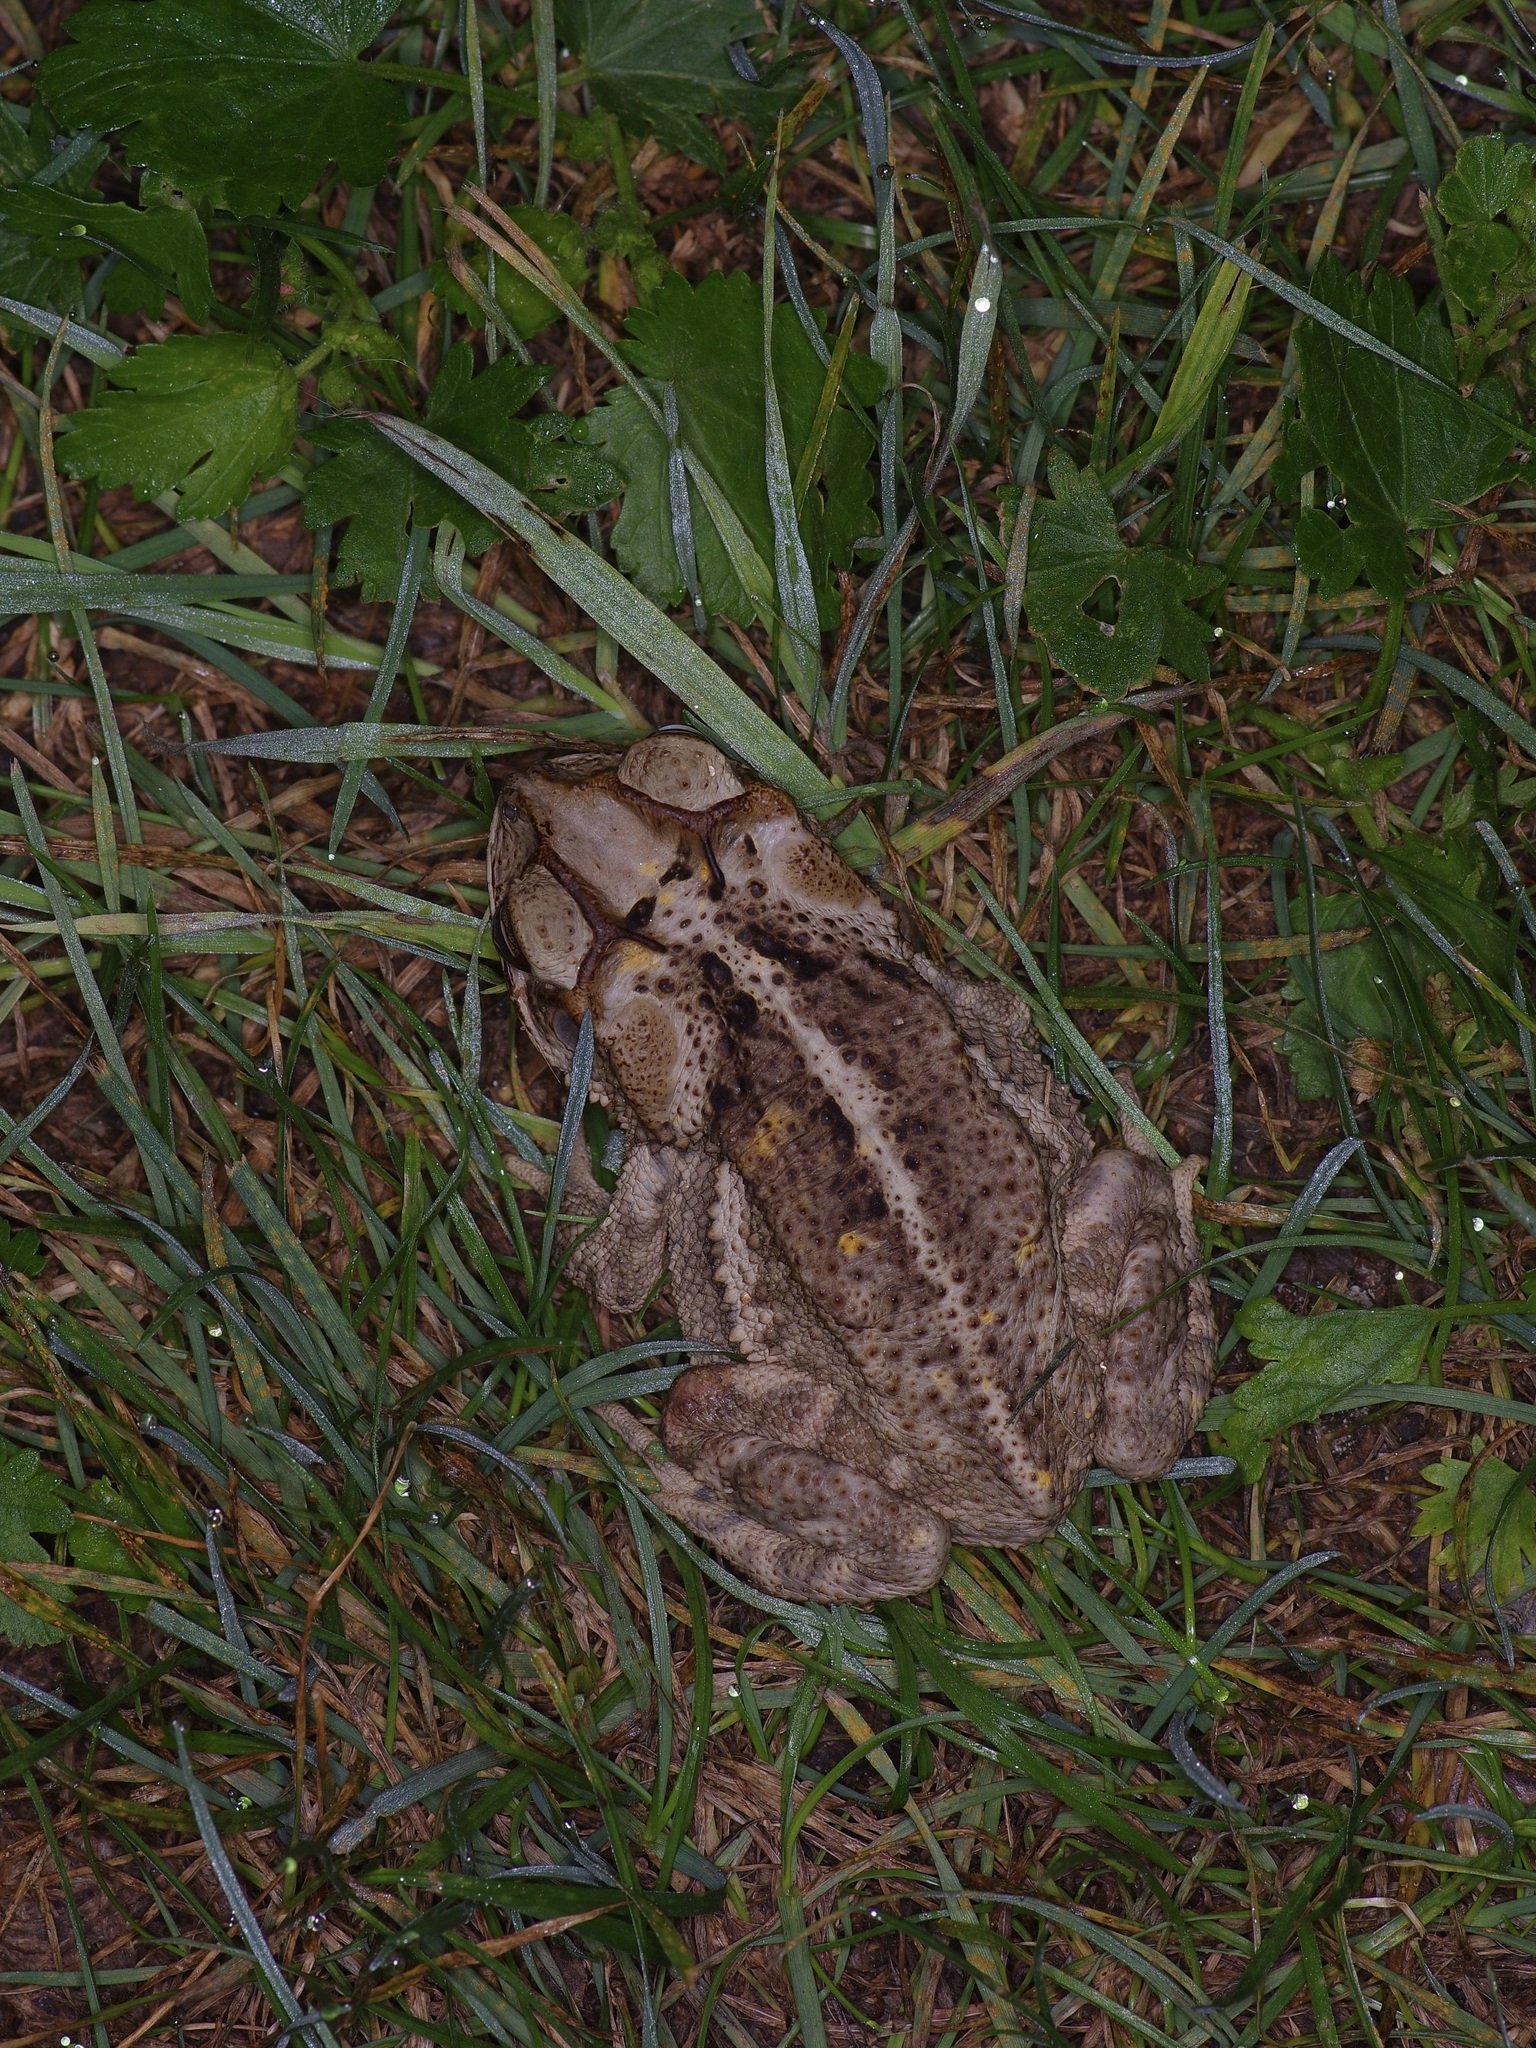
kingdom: Animalia
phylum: Chordata
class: Amphibia
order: Anura
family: Bufonidae
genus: Incilius
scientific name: Incilius nebulifer
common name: Gulf coast toad
